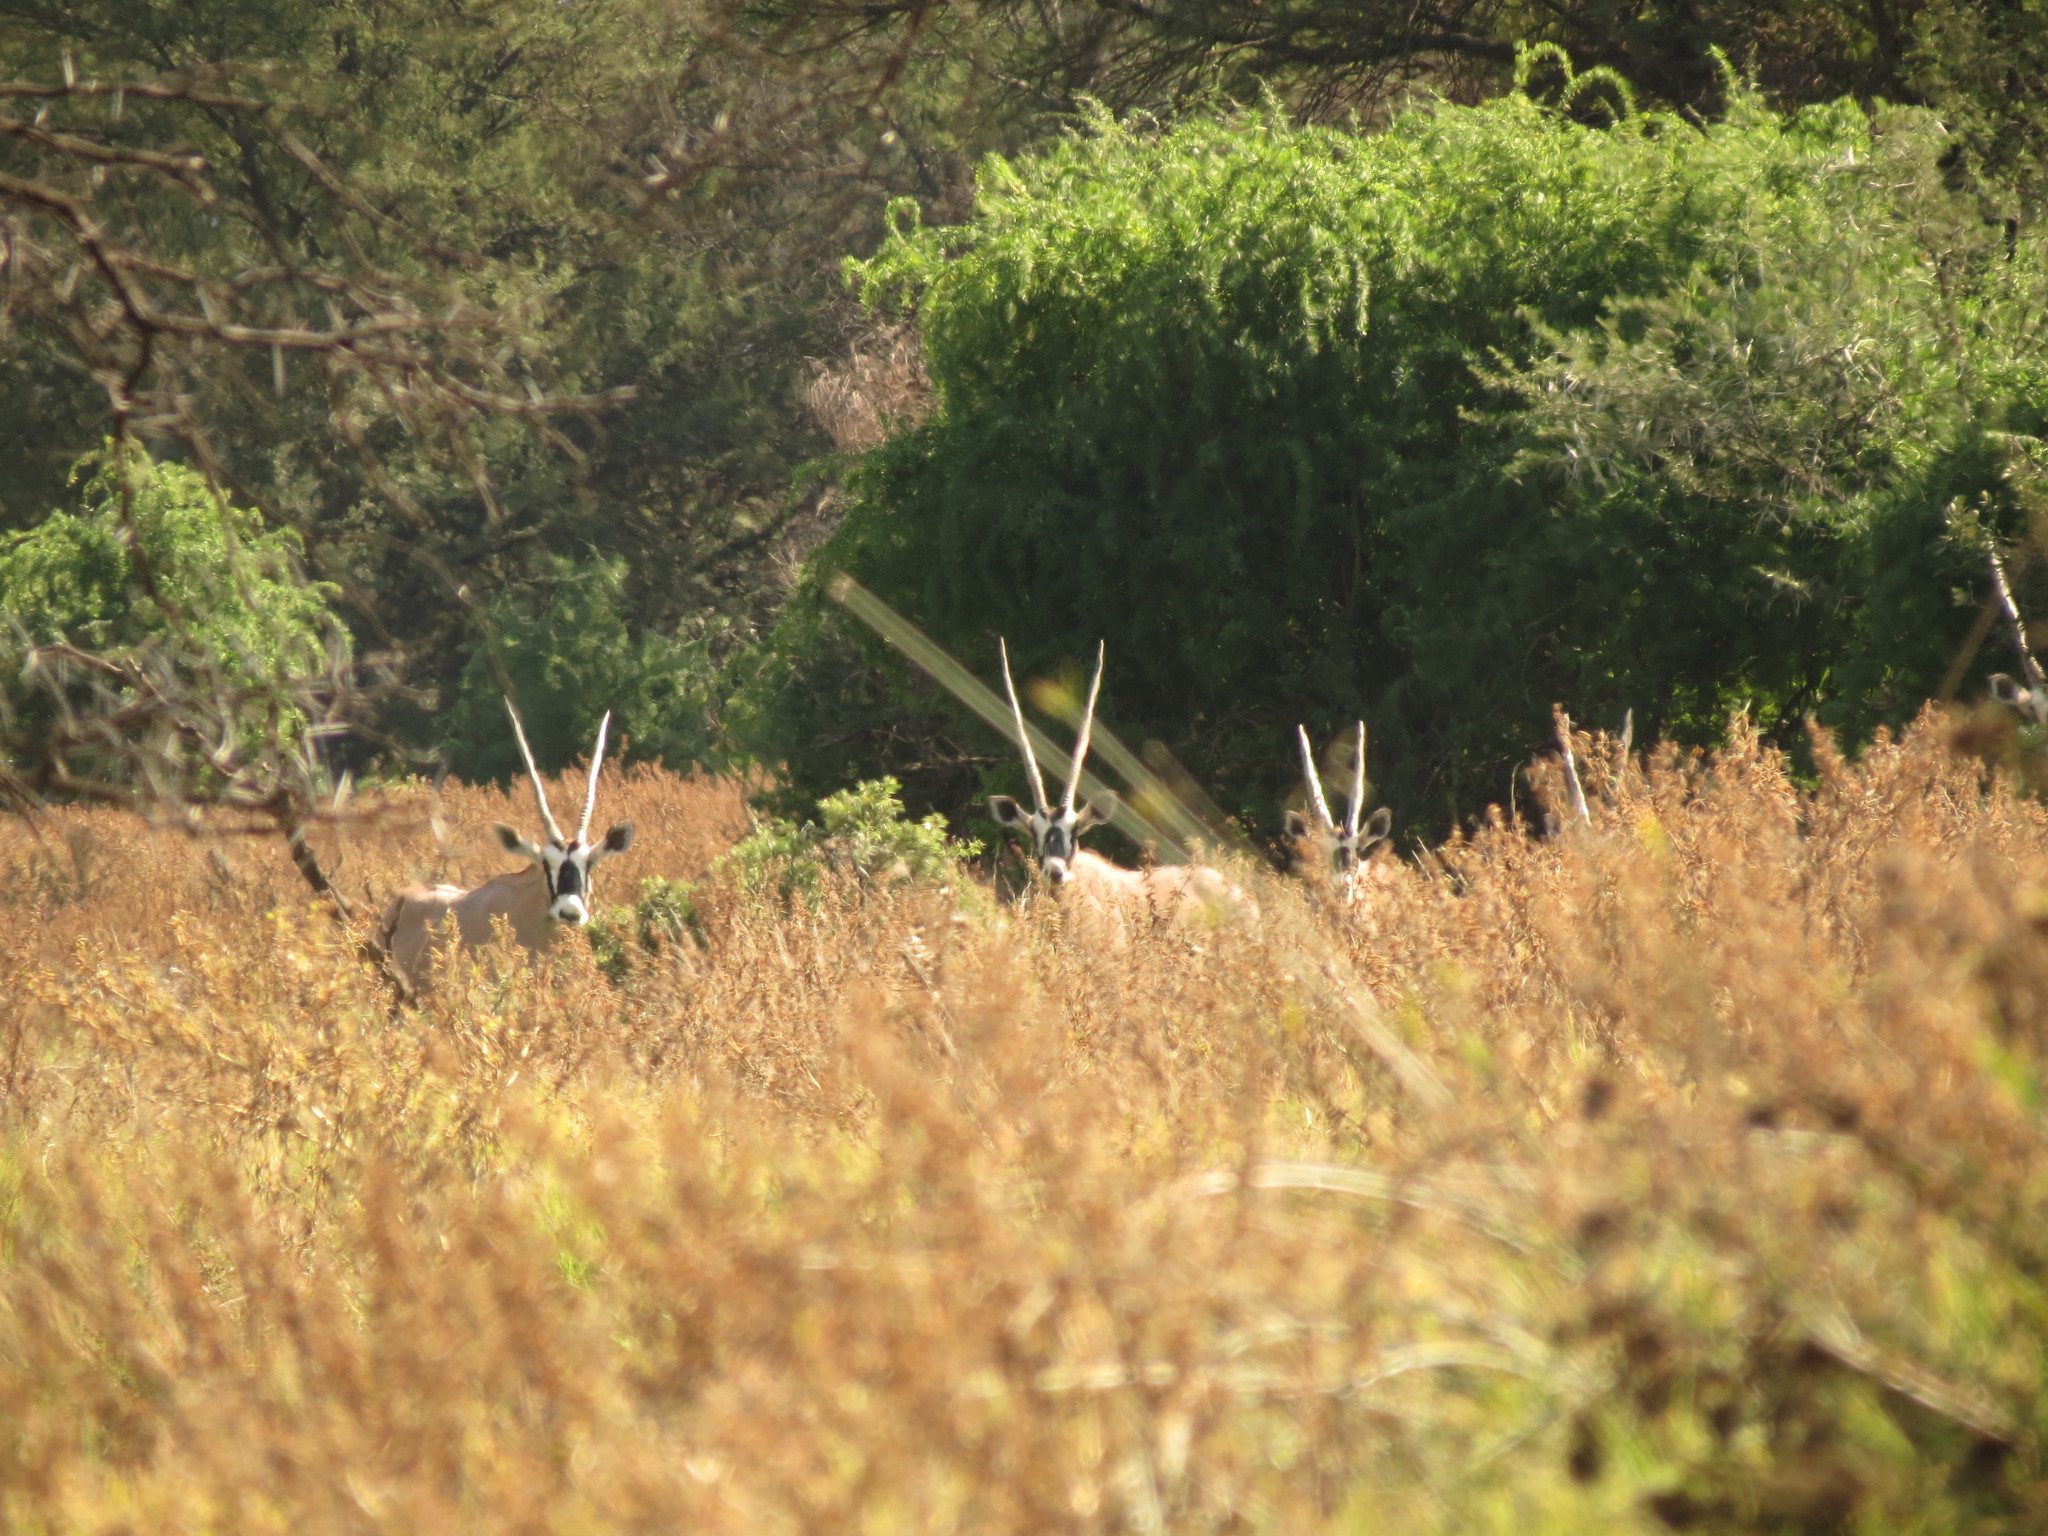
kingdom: Animalia
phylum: Chordata
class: Mammalia
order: Artiodactyla
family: Bovidae
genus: Oryx
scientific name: Oryx gazella
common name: Gemsbok
